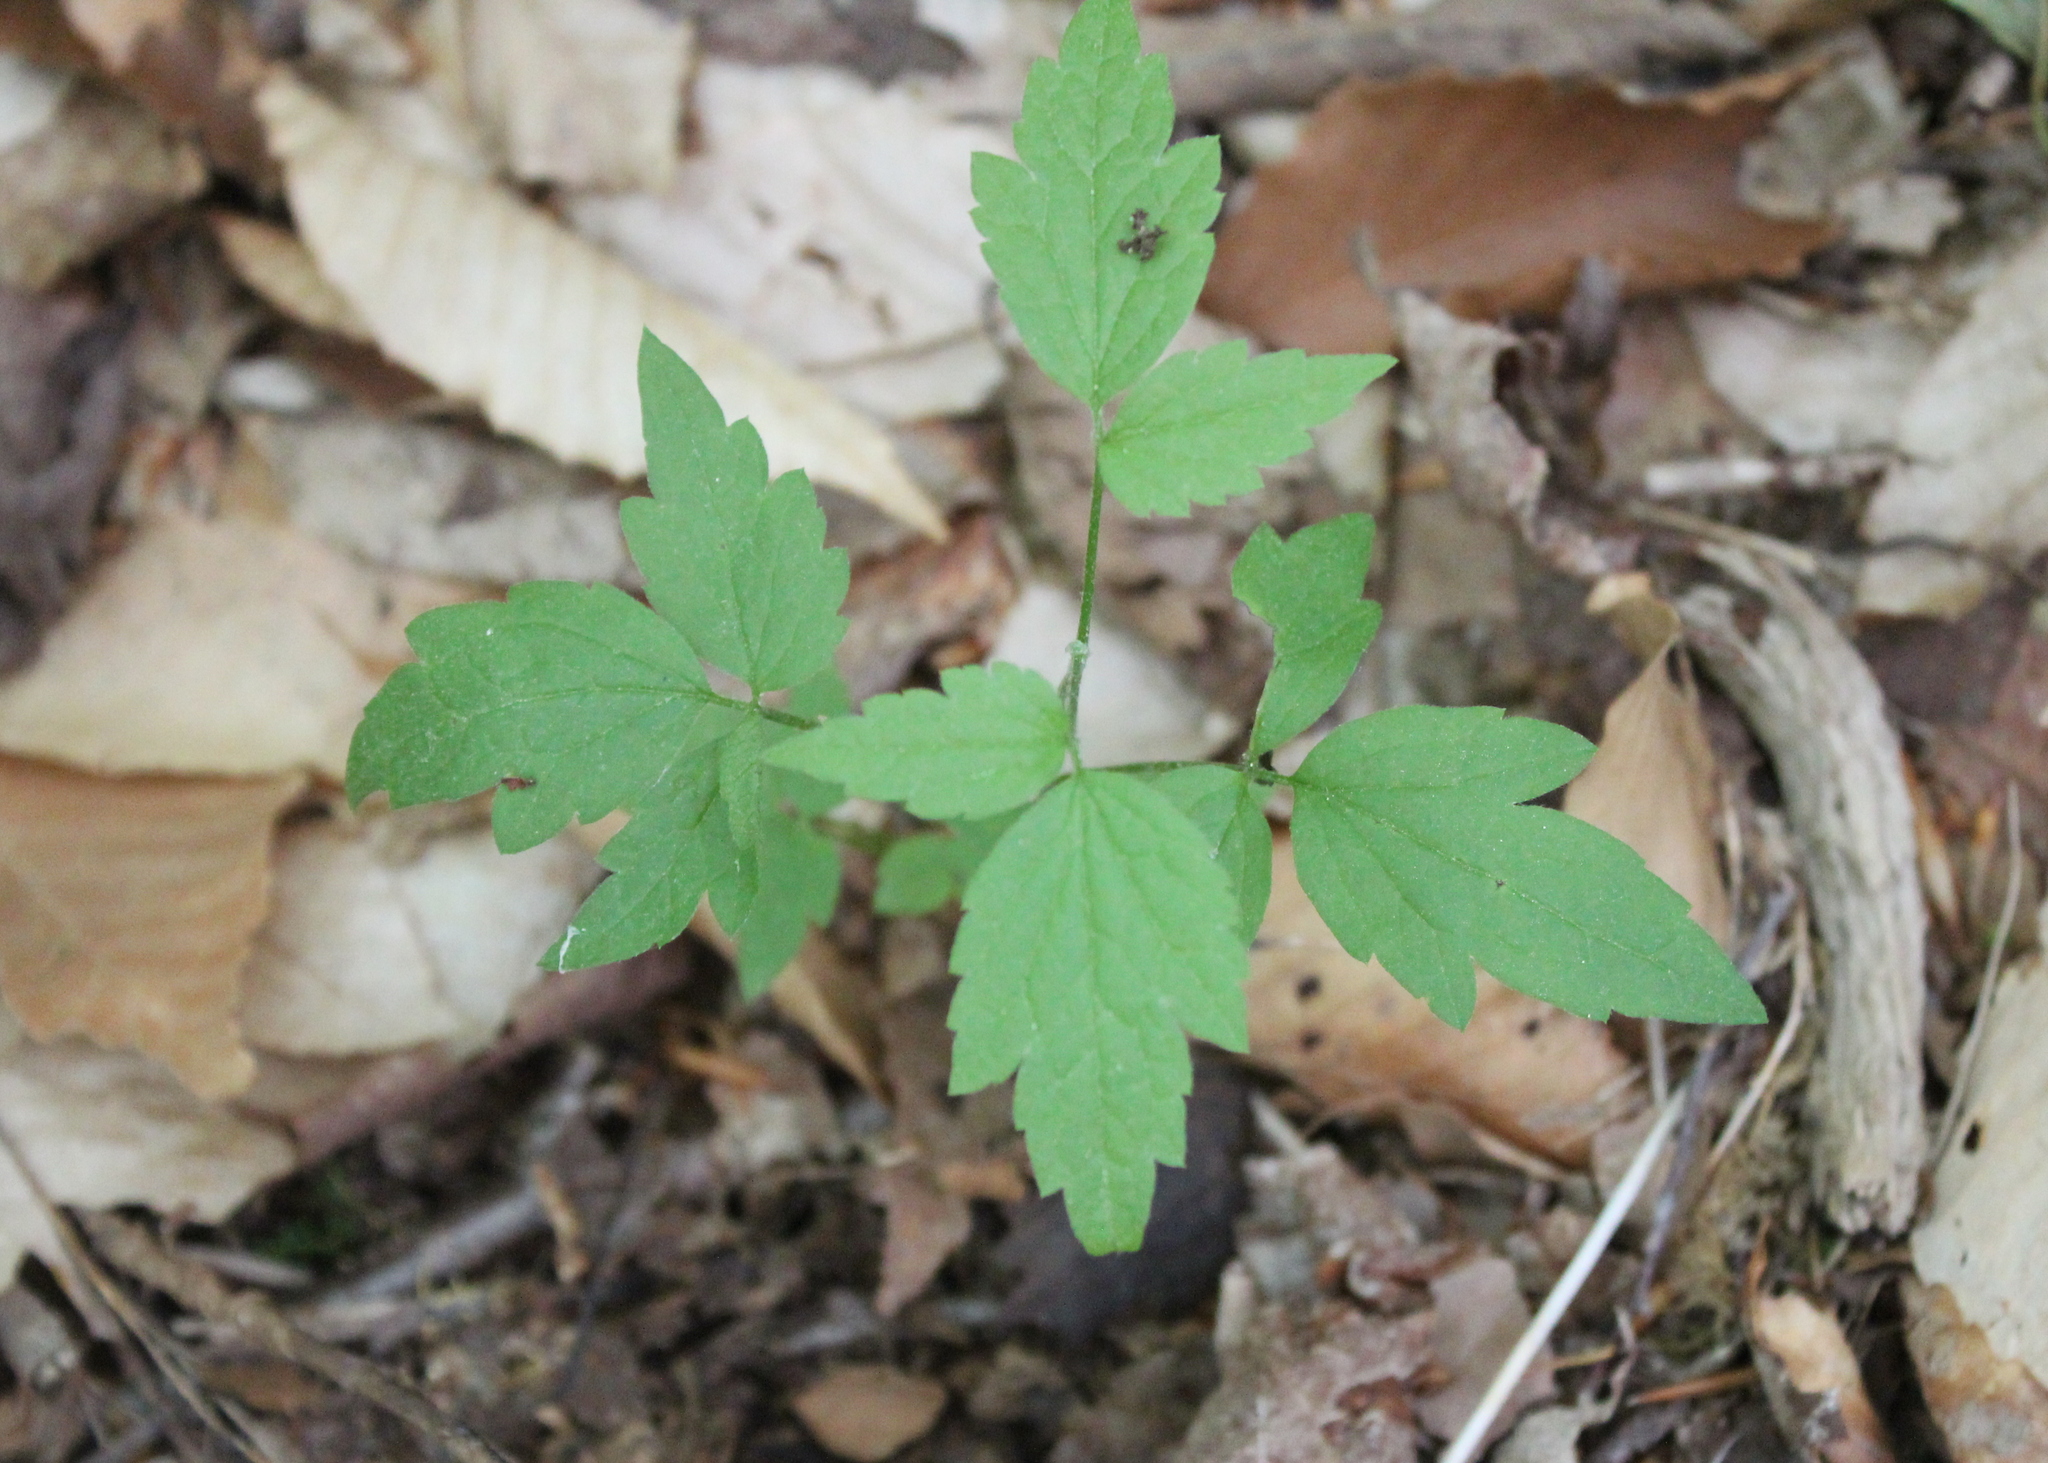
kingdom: Plantae
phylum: Tracheophyta
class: Magnoliopsida
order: Ranunculales
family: Ranunculaceae
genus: Clematis
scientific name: Clematis virginiana
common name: Virgin's-bower
